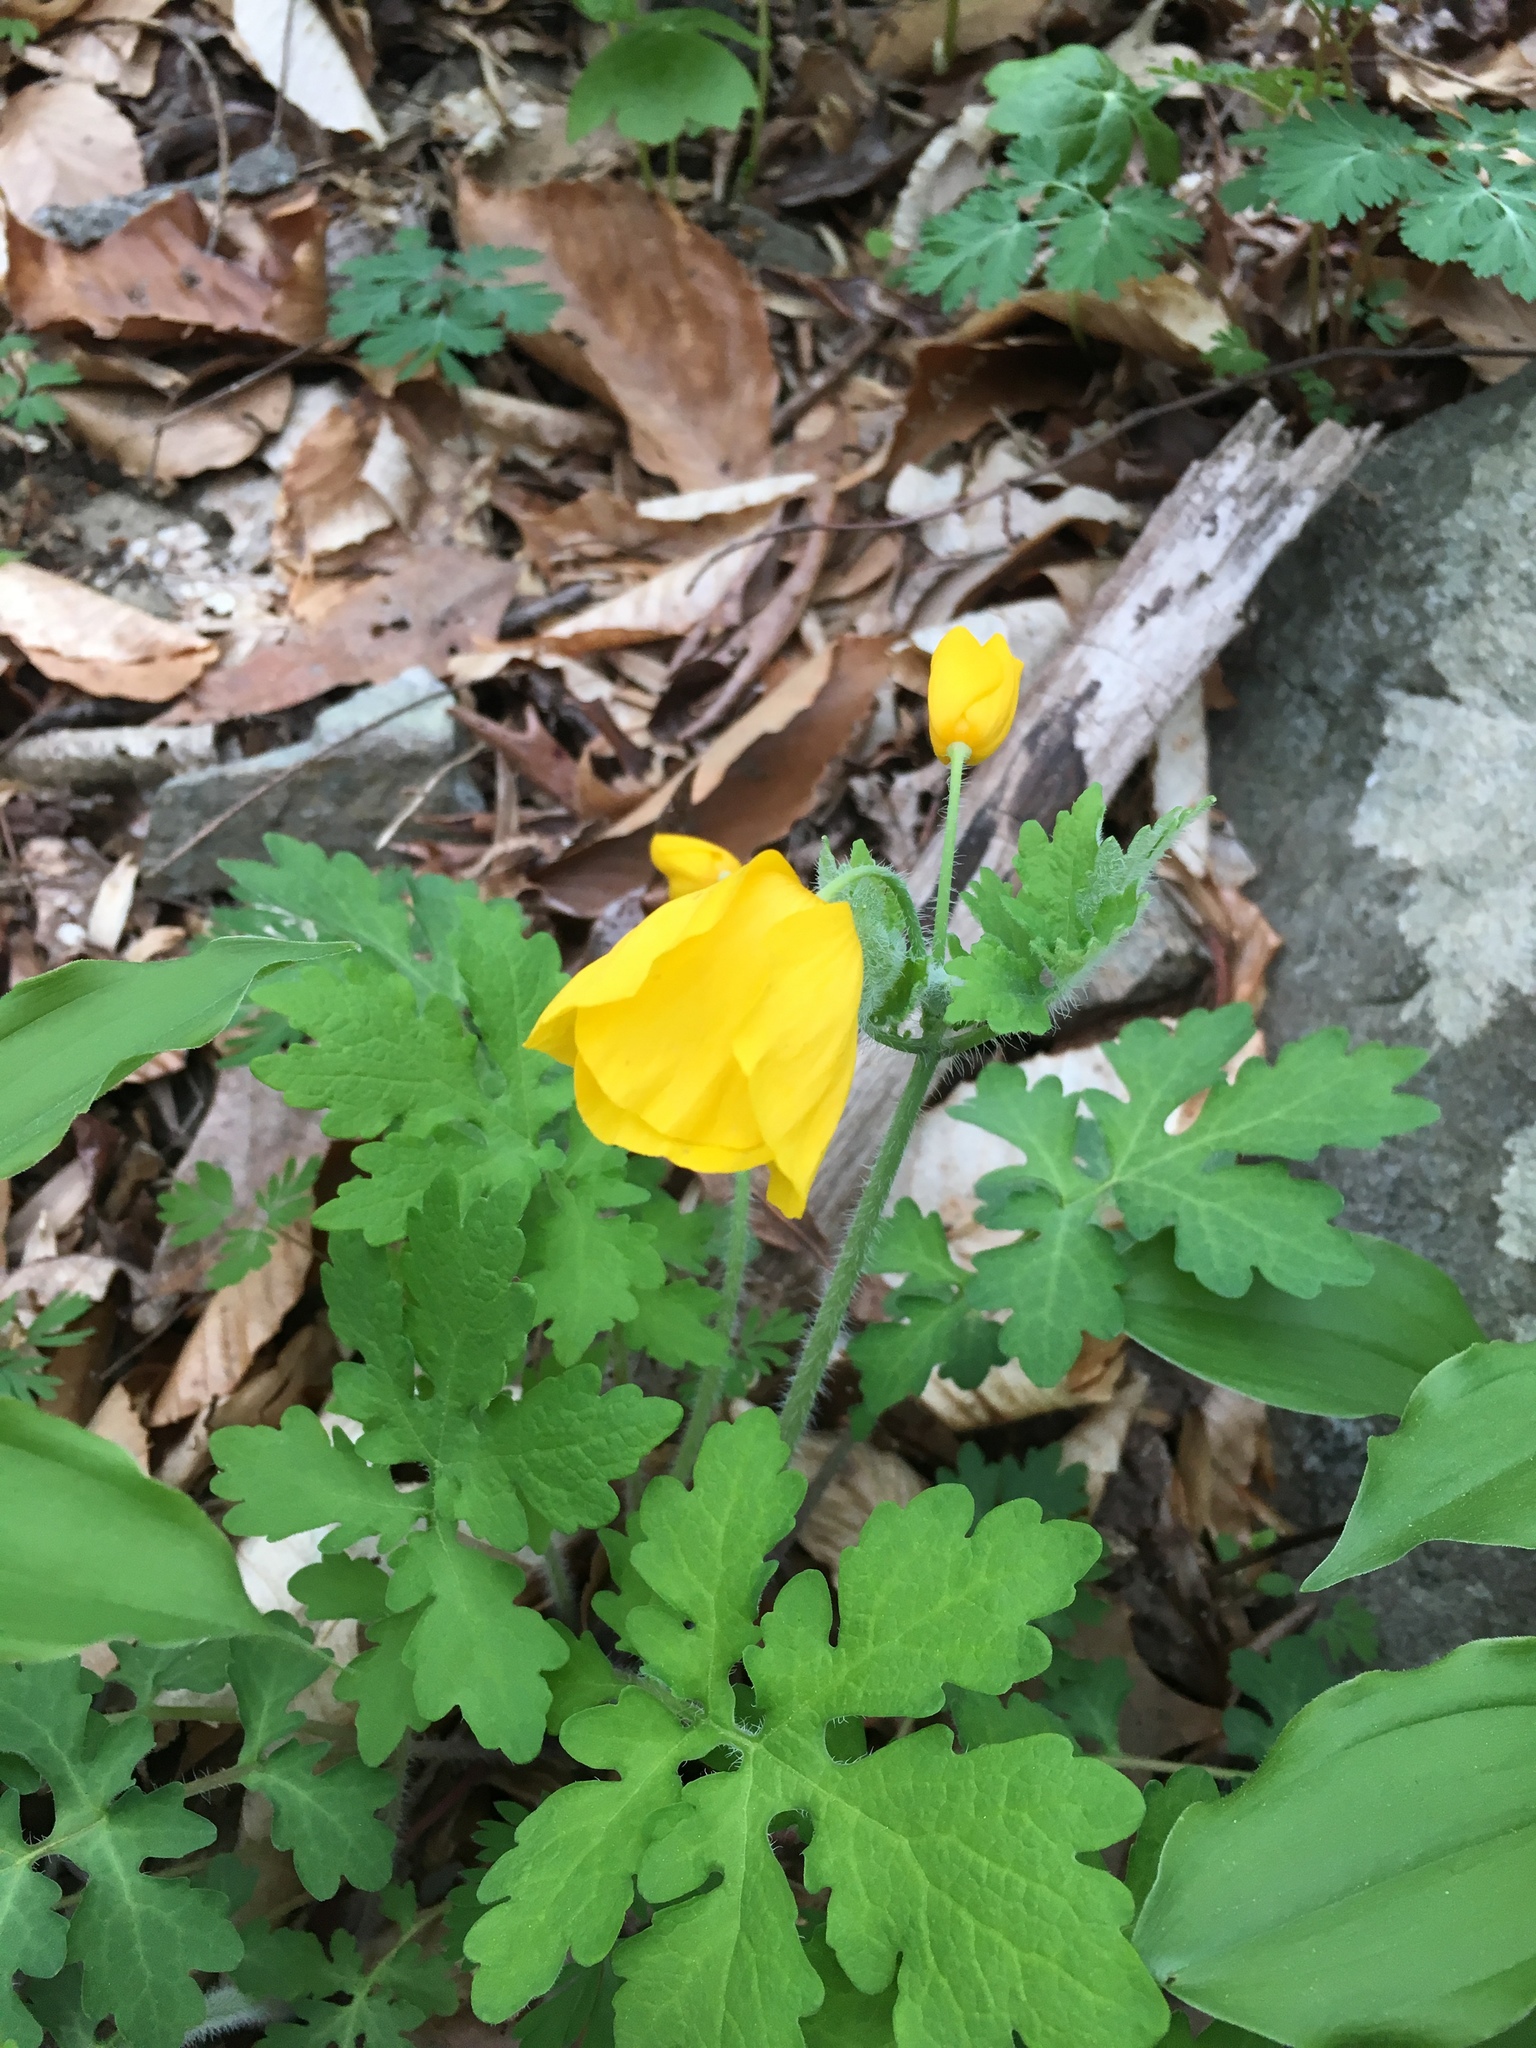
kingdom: Plantae
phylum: Tracheophyta
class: Magnoliopsida
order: Ranunculales
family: Papaveraceae
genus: Stylophorum
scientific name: Stylophorum diphyllum
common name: Celandine poppy
